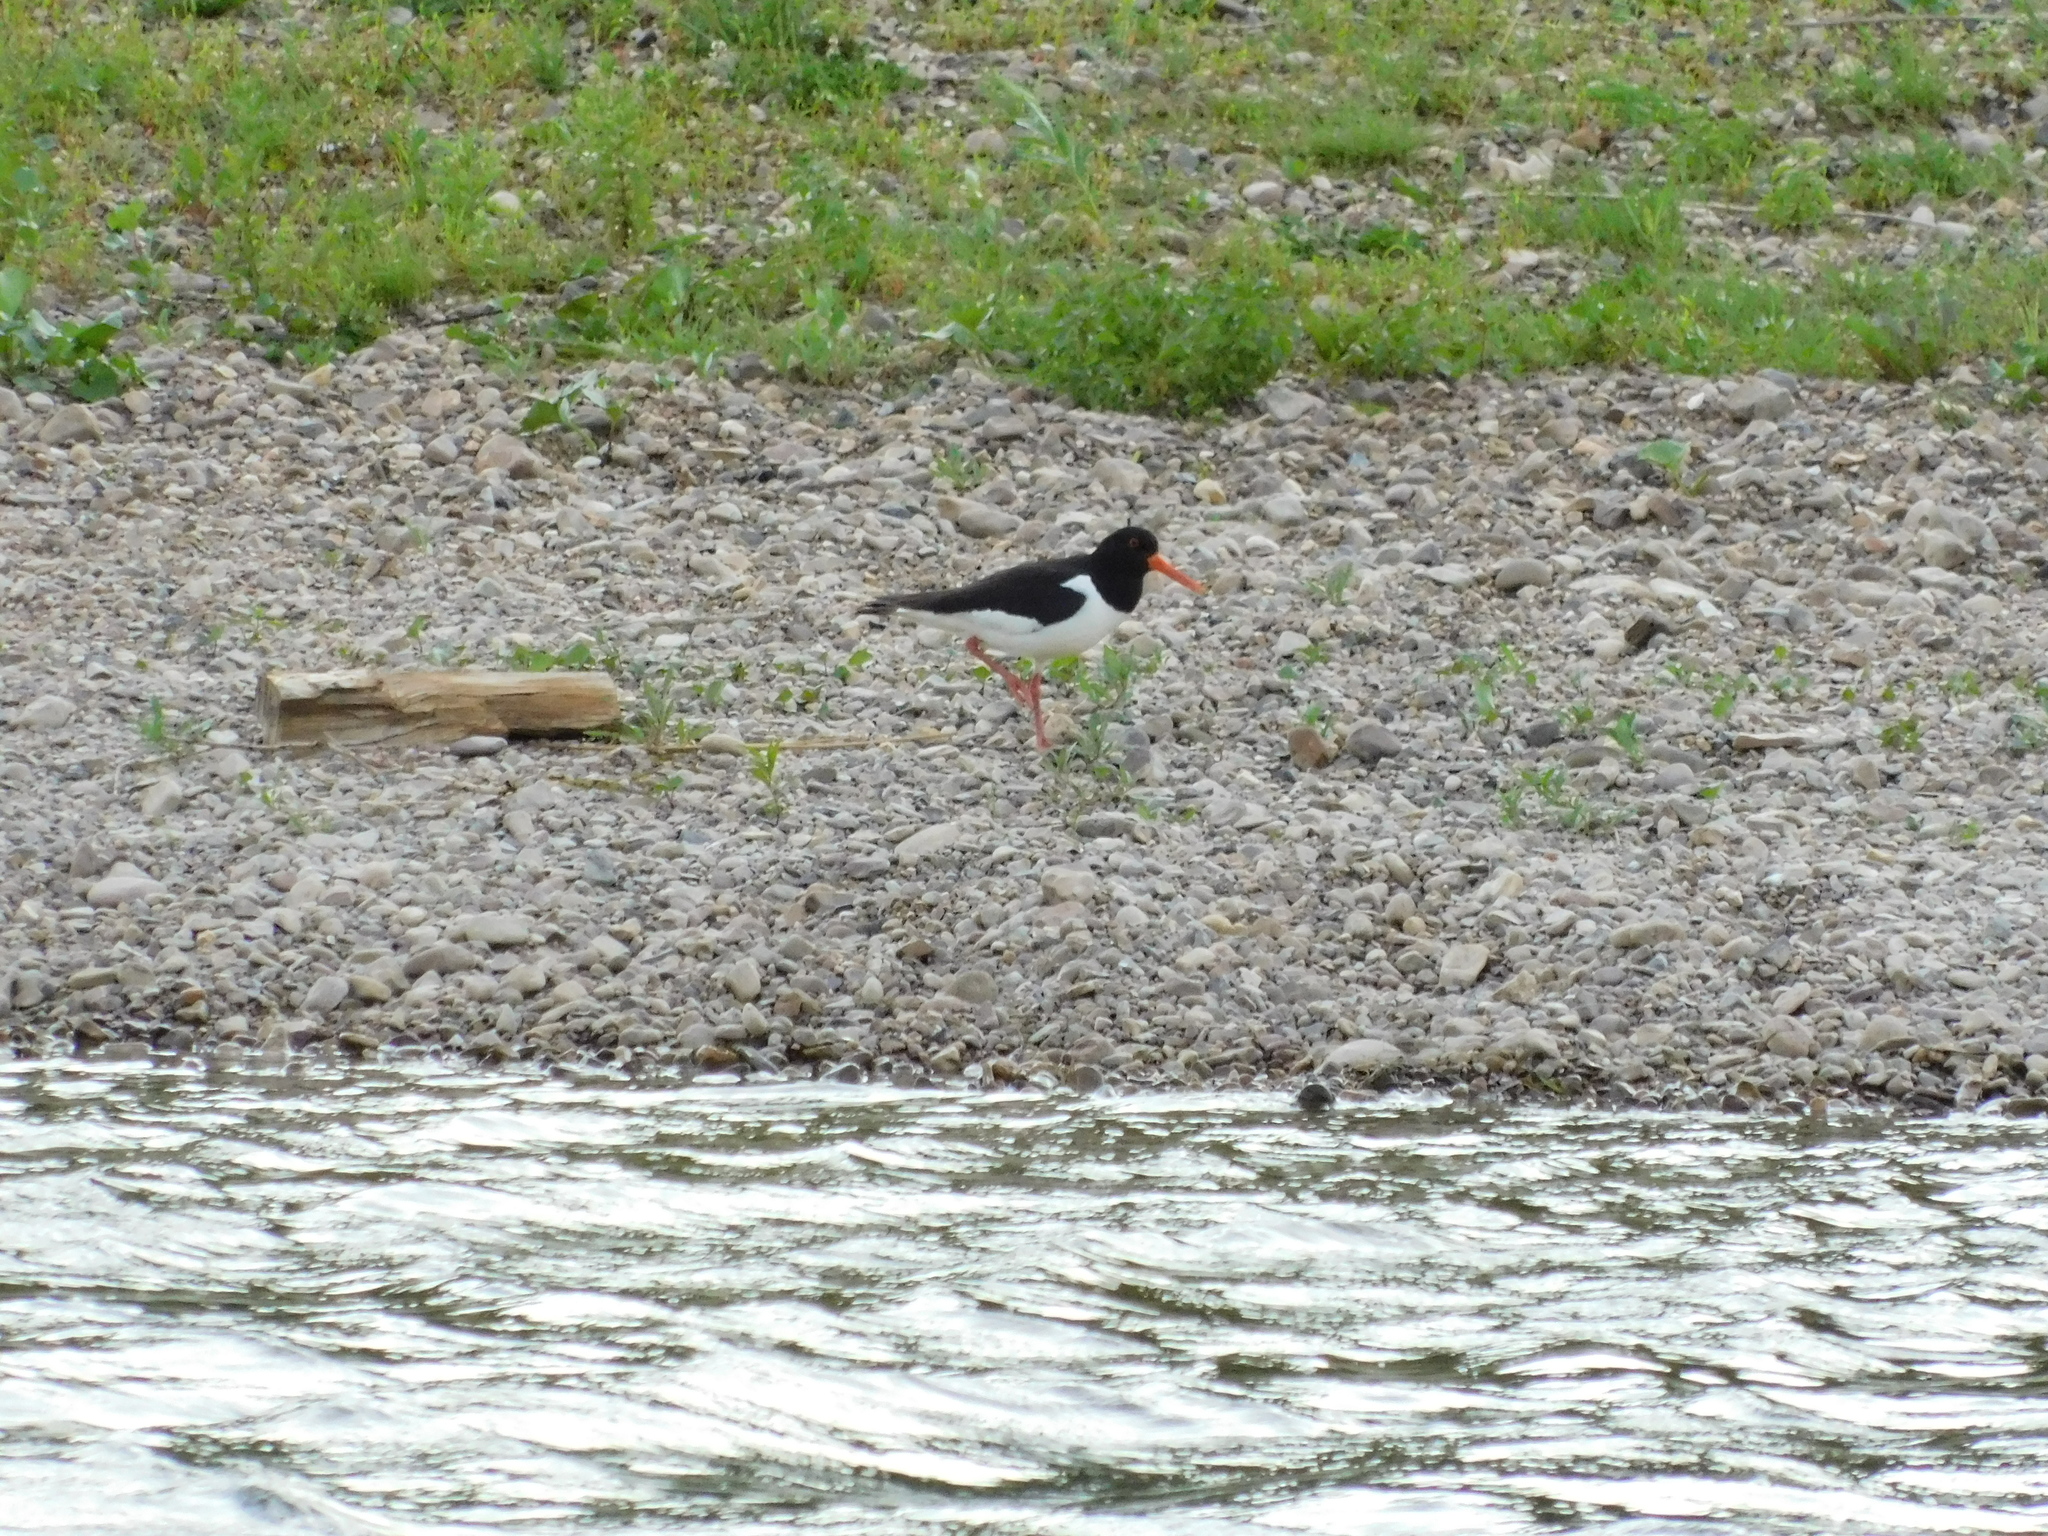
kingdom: Animalia
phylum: Chordata
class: Aves
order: Charadriiformes
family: Haematopodidae
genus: Haematopus
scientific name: Haematopus ostralegus
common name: Eurasian oystercatcher
